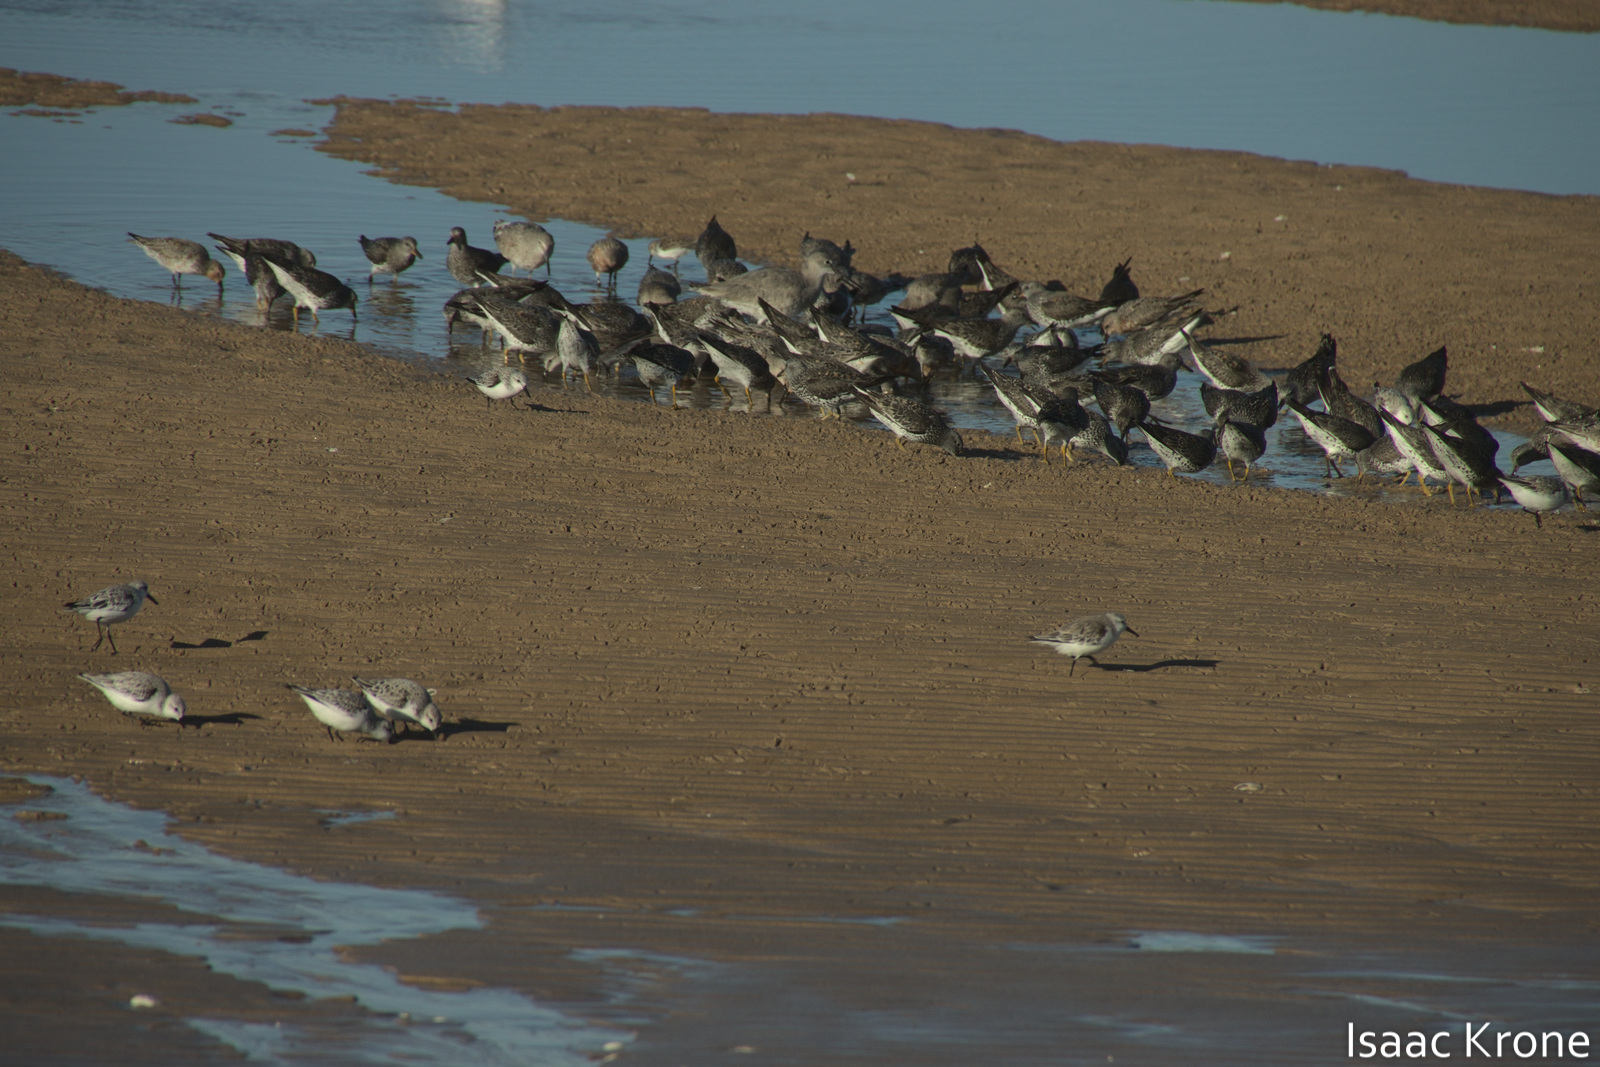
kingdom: Animalia
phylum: Chordata
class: Aves
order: Charadriiformes
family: Scolopacidae
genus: Calidris
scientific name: Calidris virgata
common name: Surfbird
